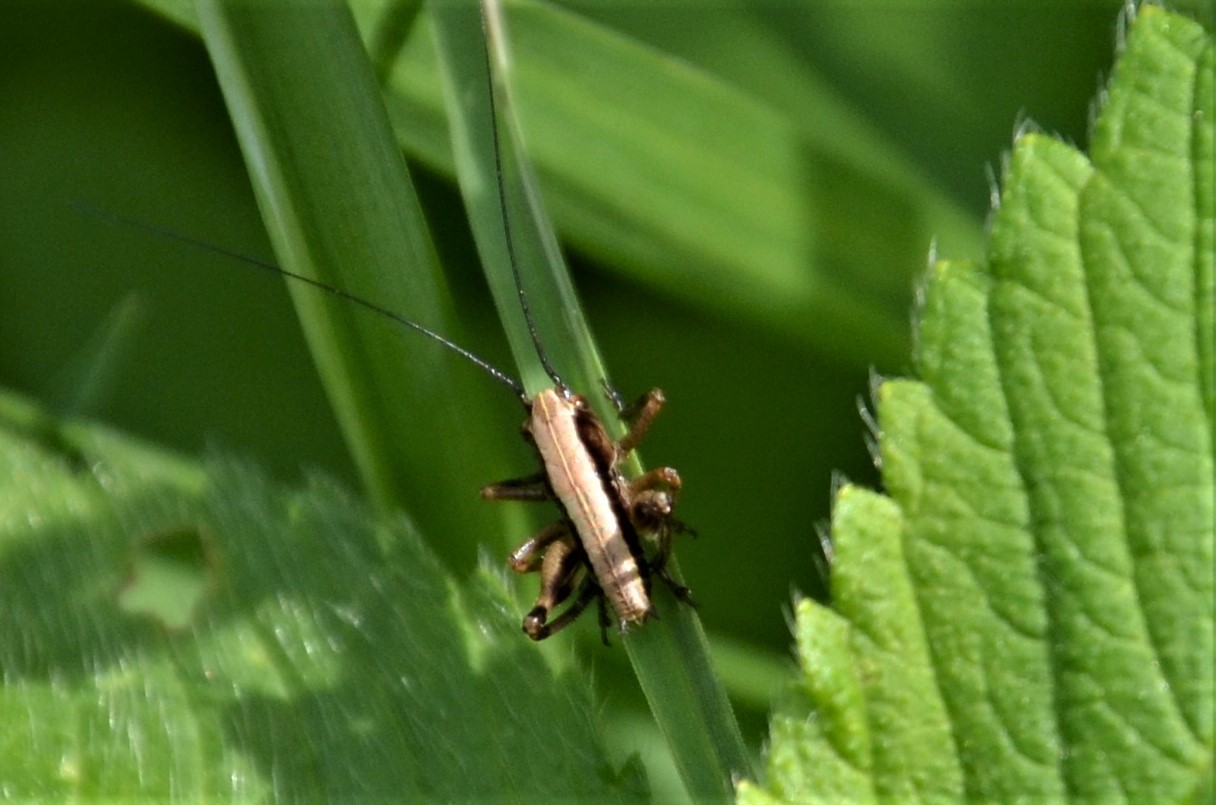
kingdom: Animalia
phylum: Arthropoda
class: Insecta
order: Orthoptera
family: Tettigoniidae
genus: Pholidoptera
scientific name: Pholidoptera griseoaptera
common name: Dark bush-cricket
